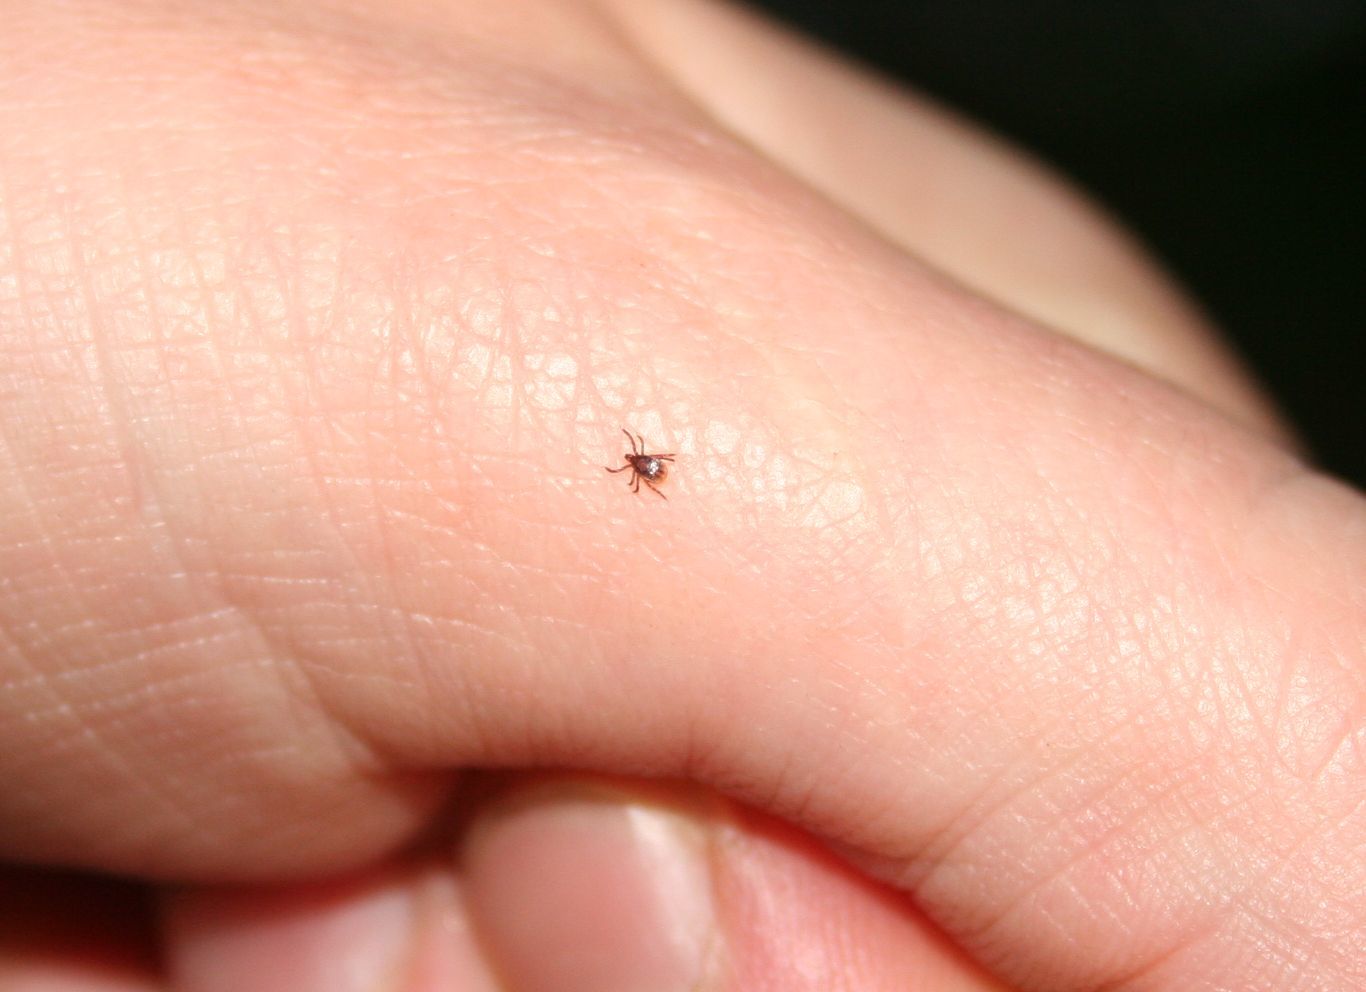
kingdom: Animalia
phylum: Arthropoda
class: Arachnida
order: Ixodida
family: Ixodidae
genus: Ixodes
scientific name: Ixodes ricinus
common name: Castor bean tick
